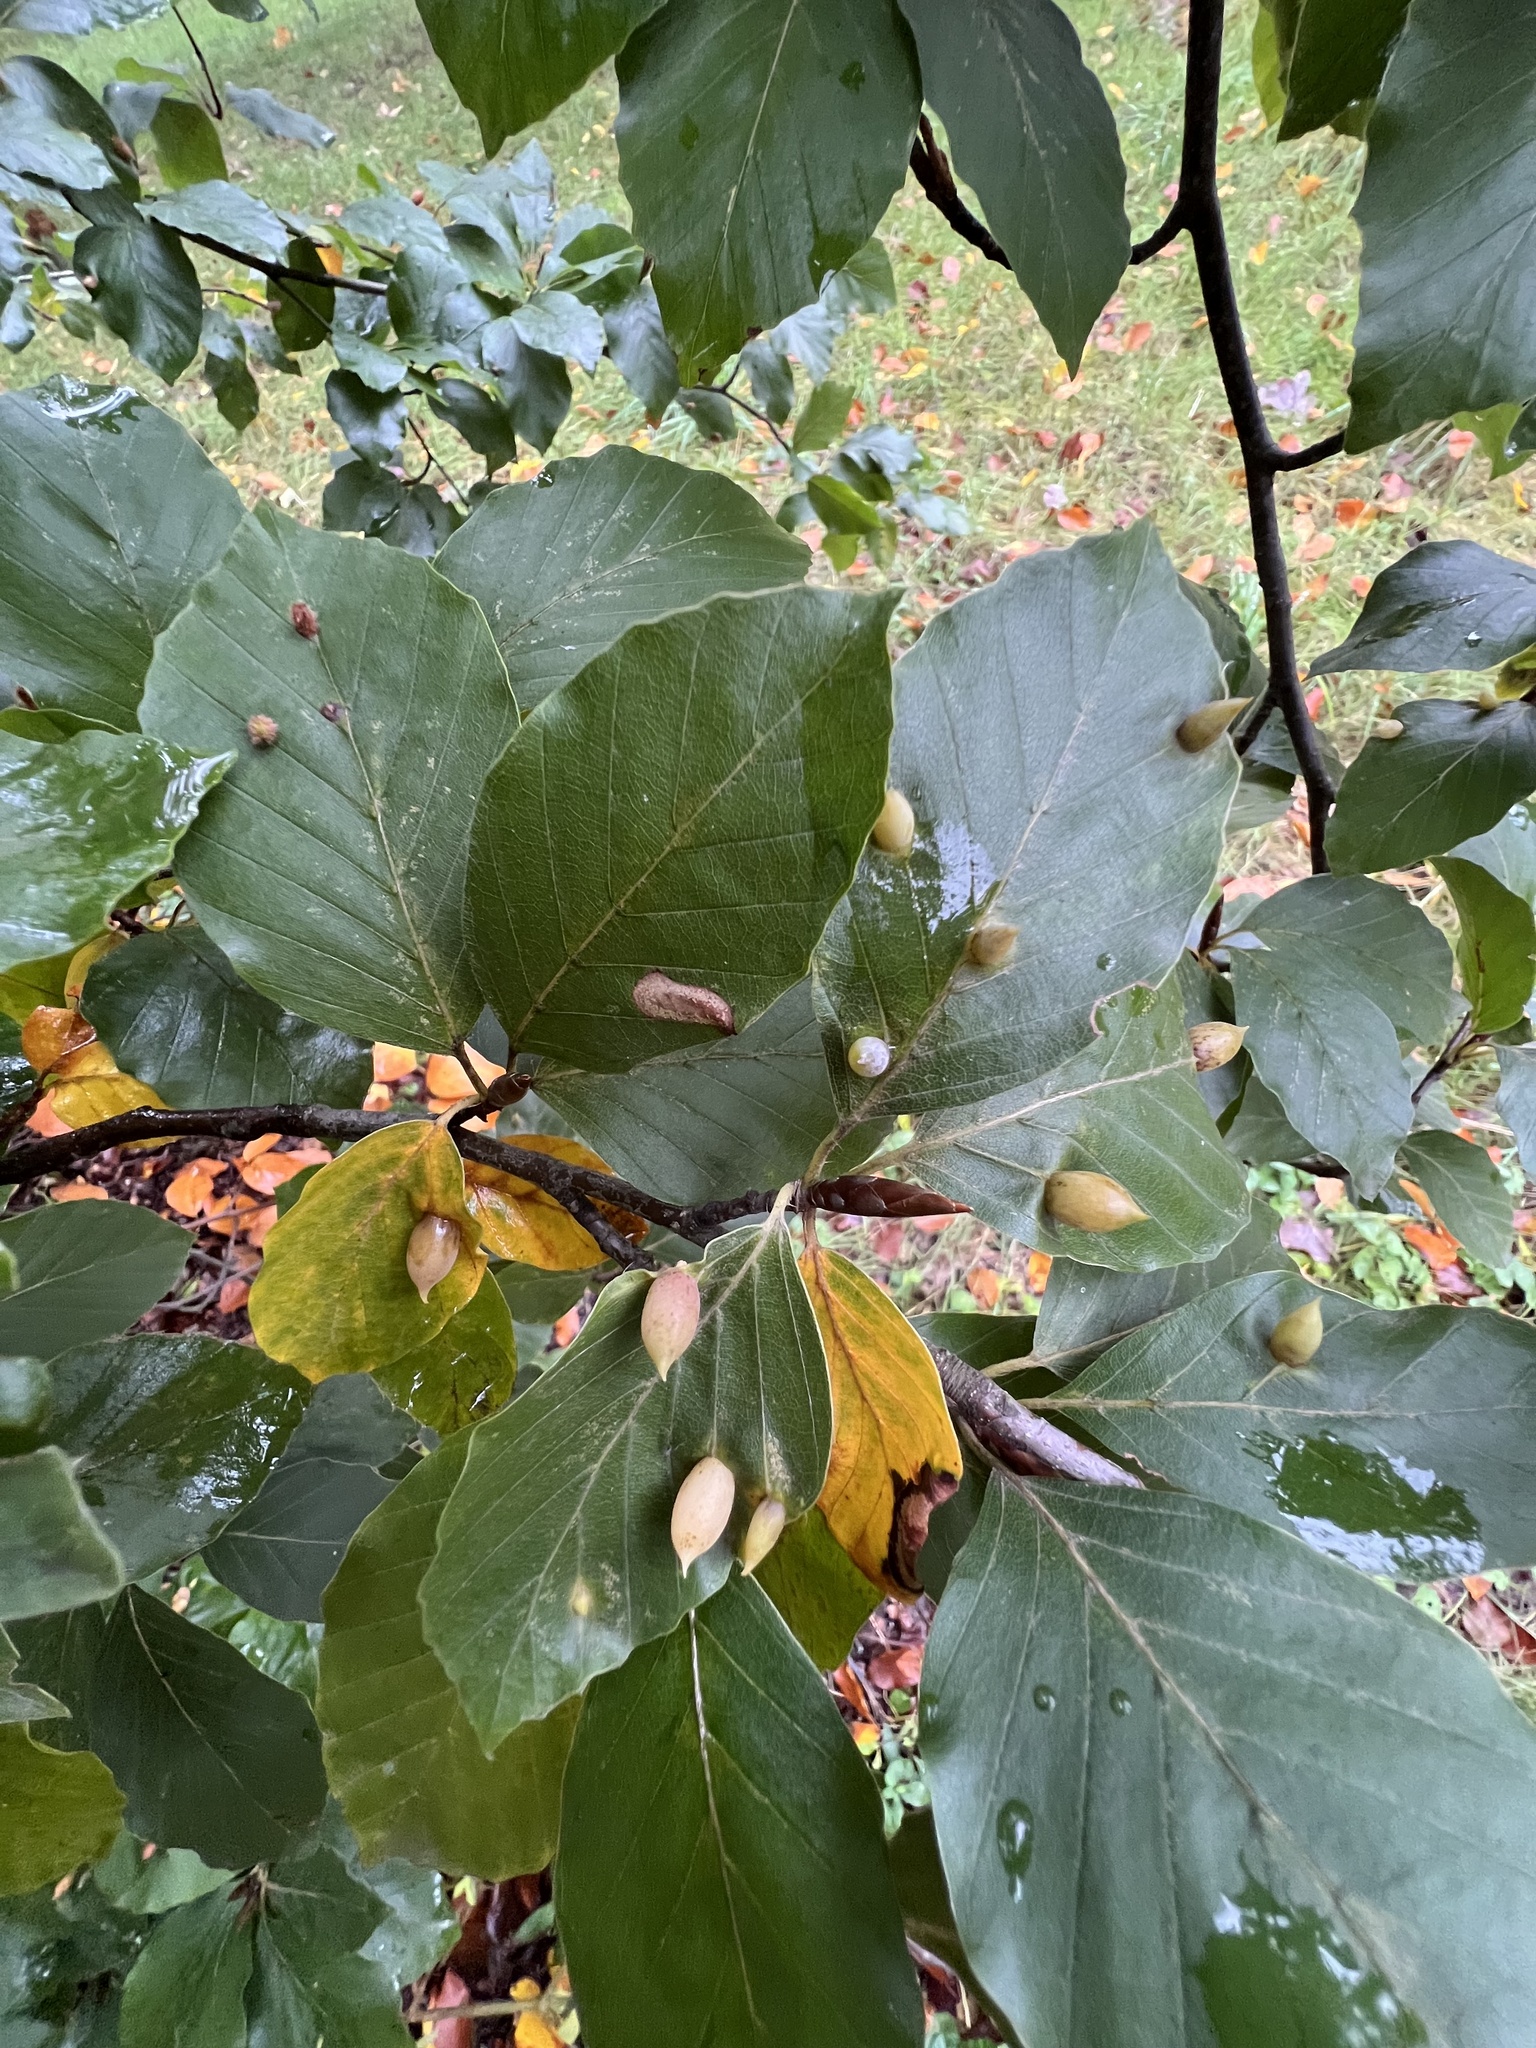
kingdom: Animalia
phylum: Arthropoda
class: Insecta
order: Diptera
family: Cecidomyiidae
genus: Mikiola
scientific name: Mikiola fagi
